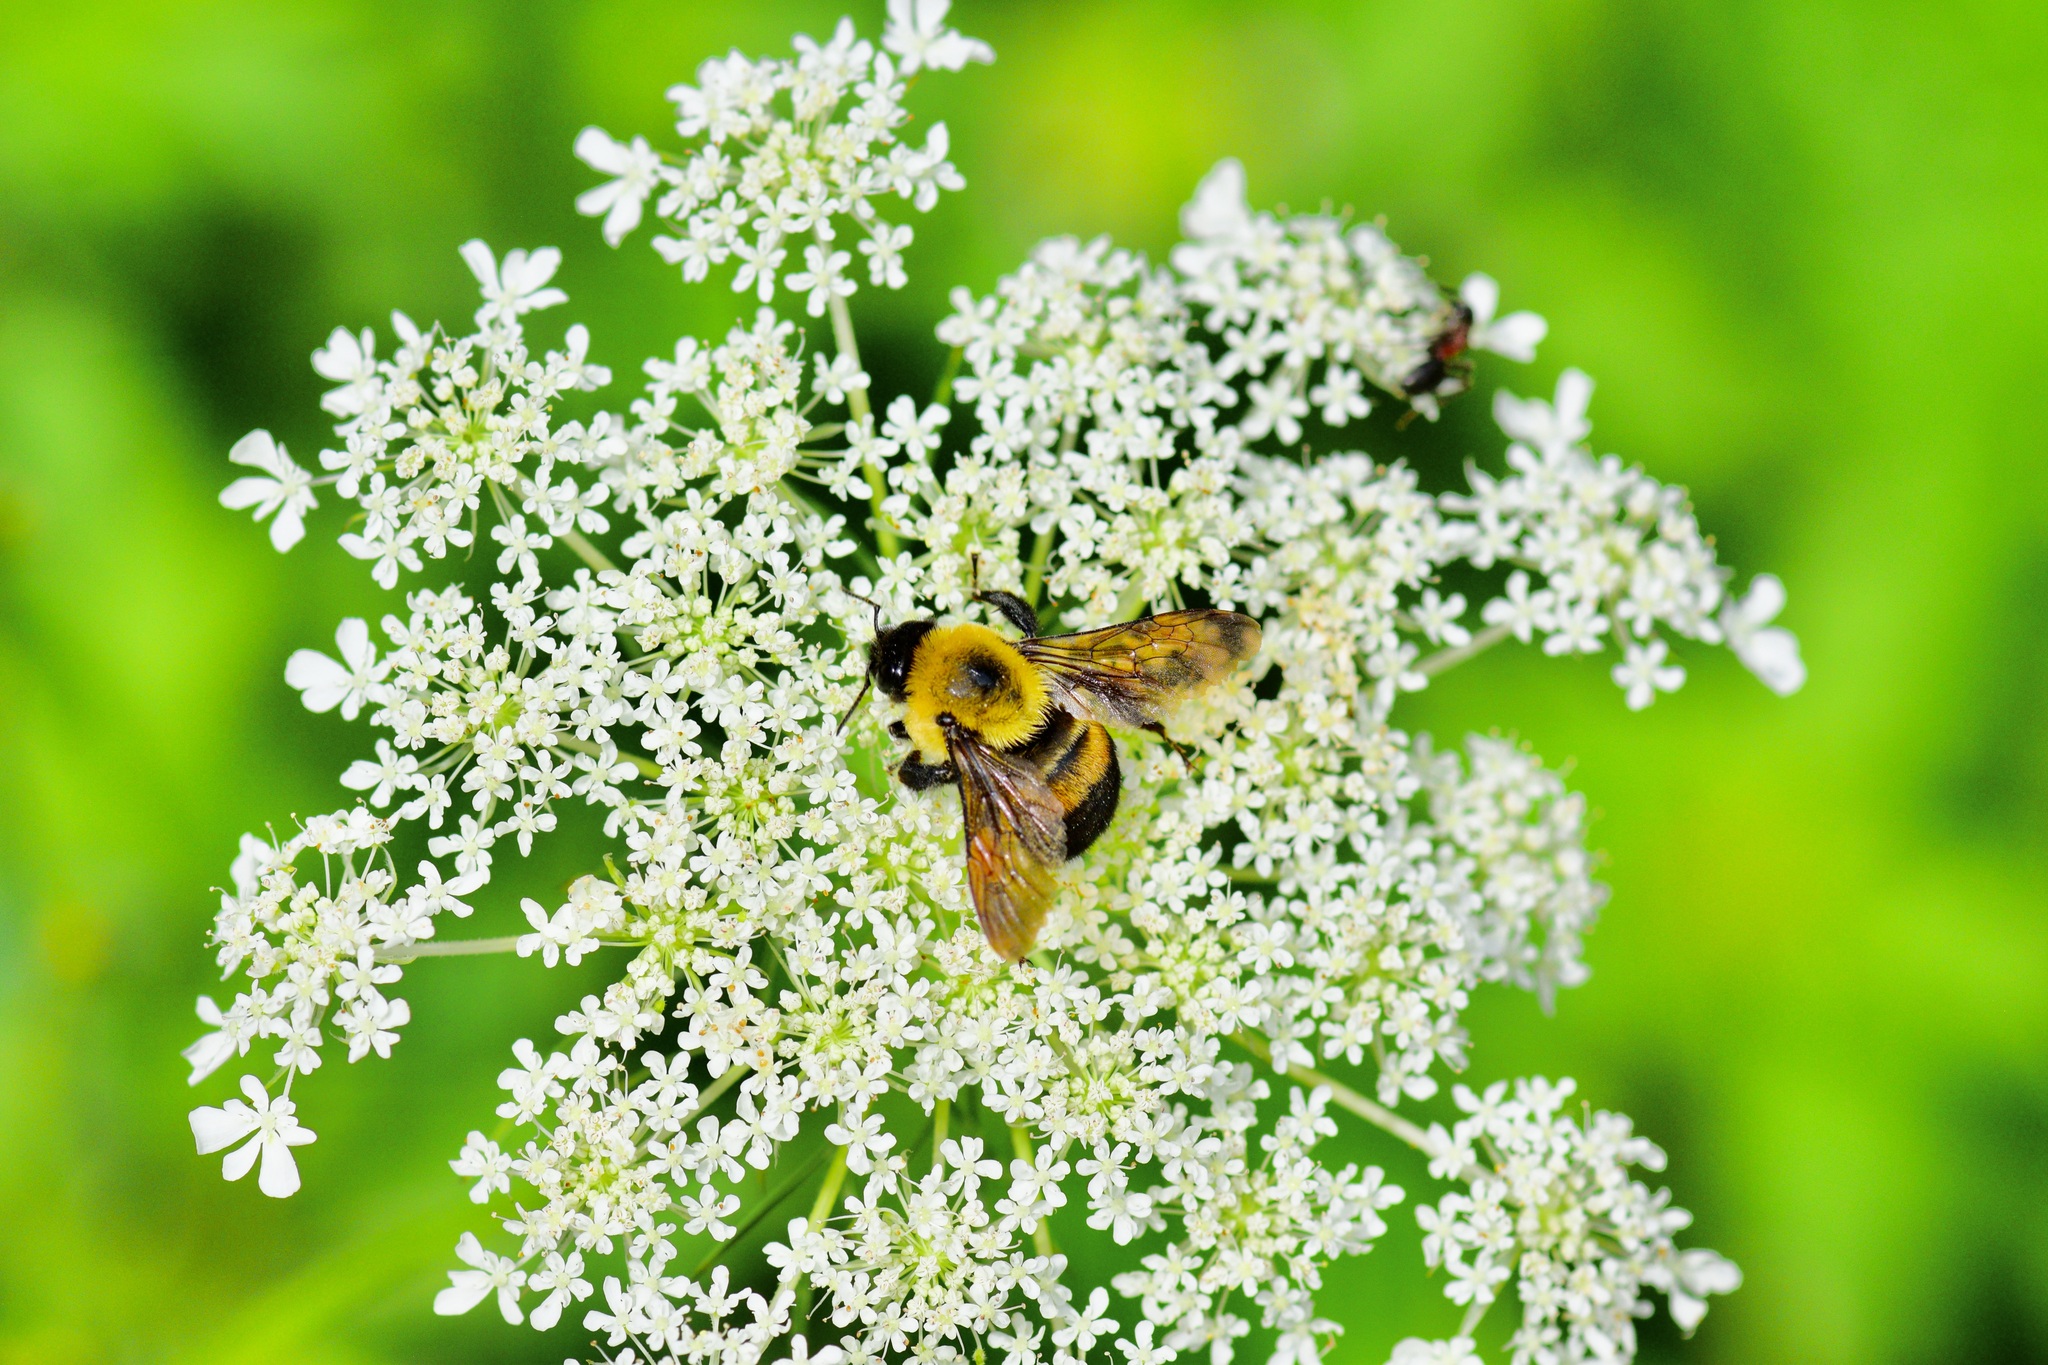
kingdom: Animalia
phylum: Arthropoda
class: Insecta
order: Hymenoptera
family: Apidae
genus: Bombus
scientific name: Bombus griseocollis
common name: Brown-belted bumble bee
